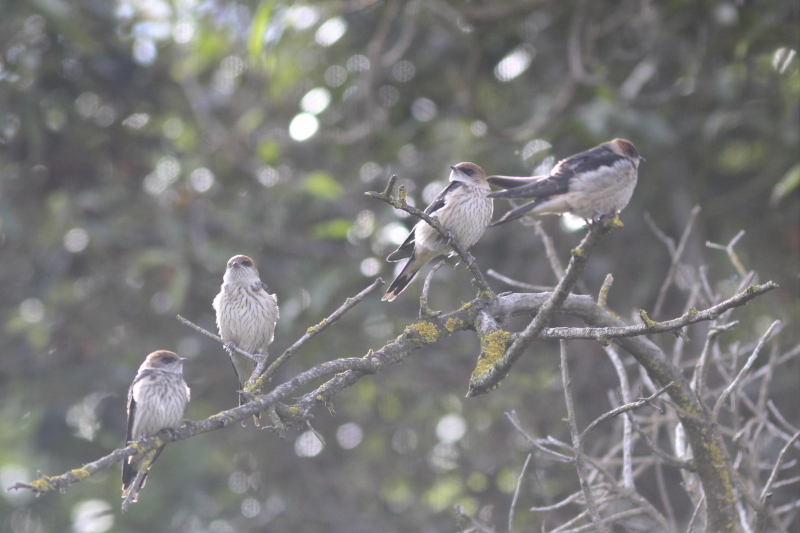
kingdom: Animalia
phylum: Chordata
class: Aves
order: Passeriformes
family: Hirundinidae
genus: Cecropis
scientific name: Cecropis cucullata
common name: Greater striped-swallow
